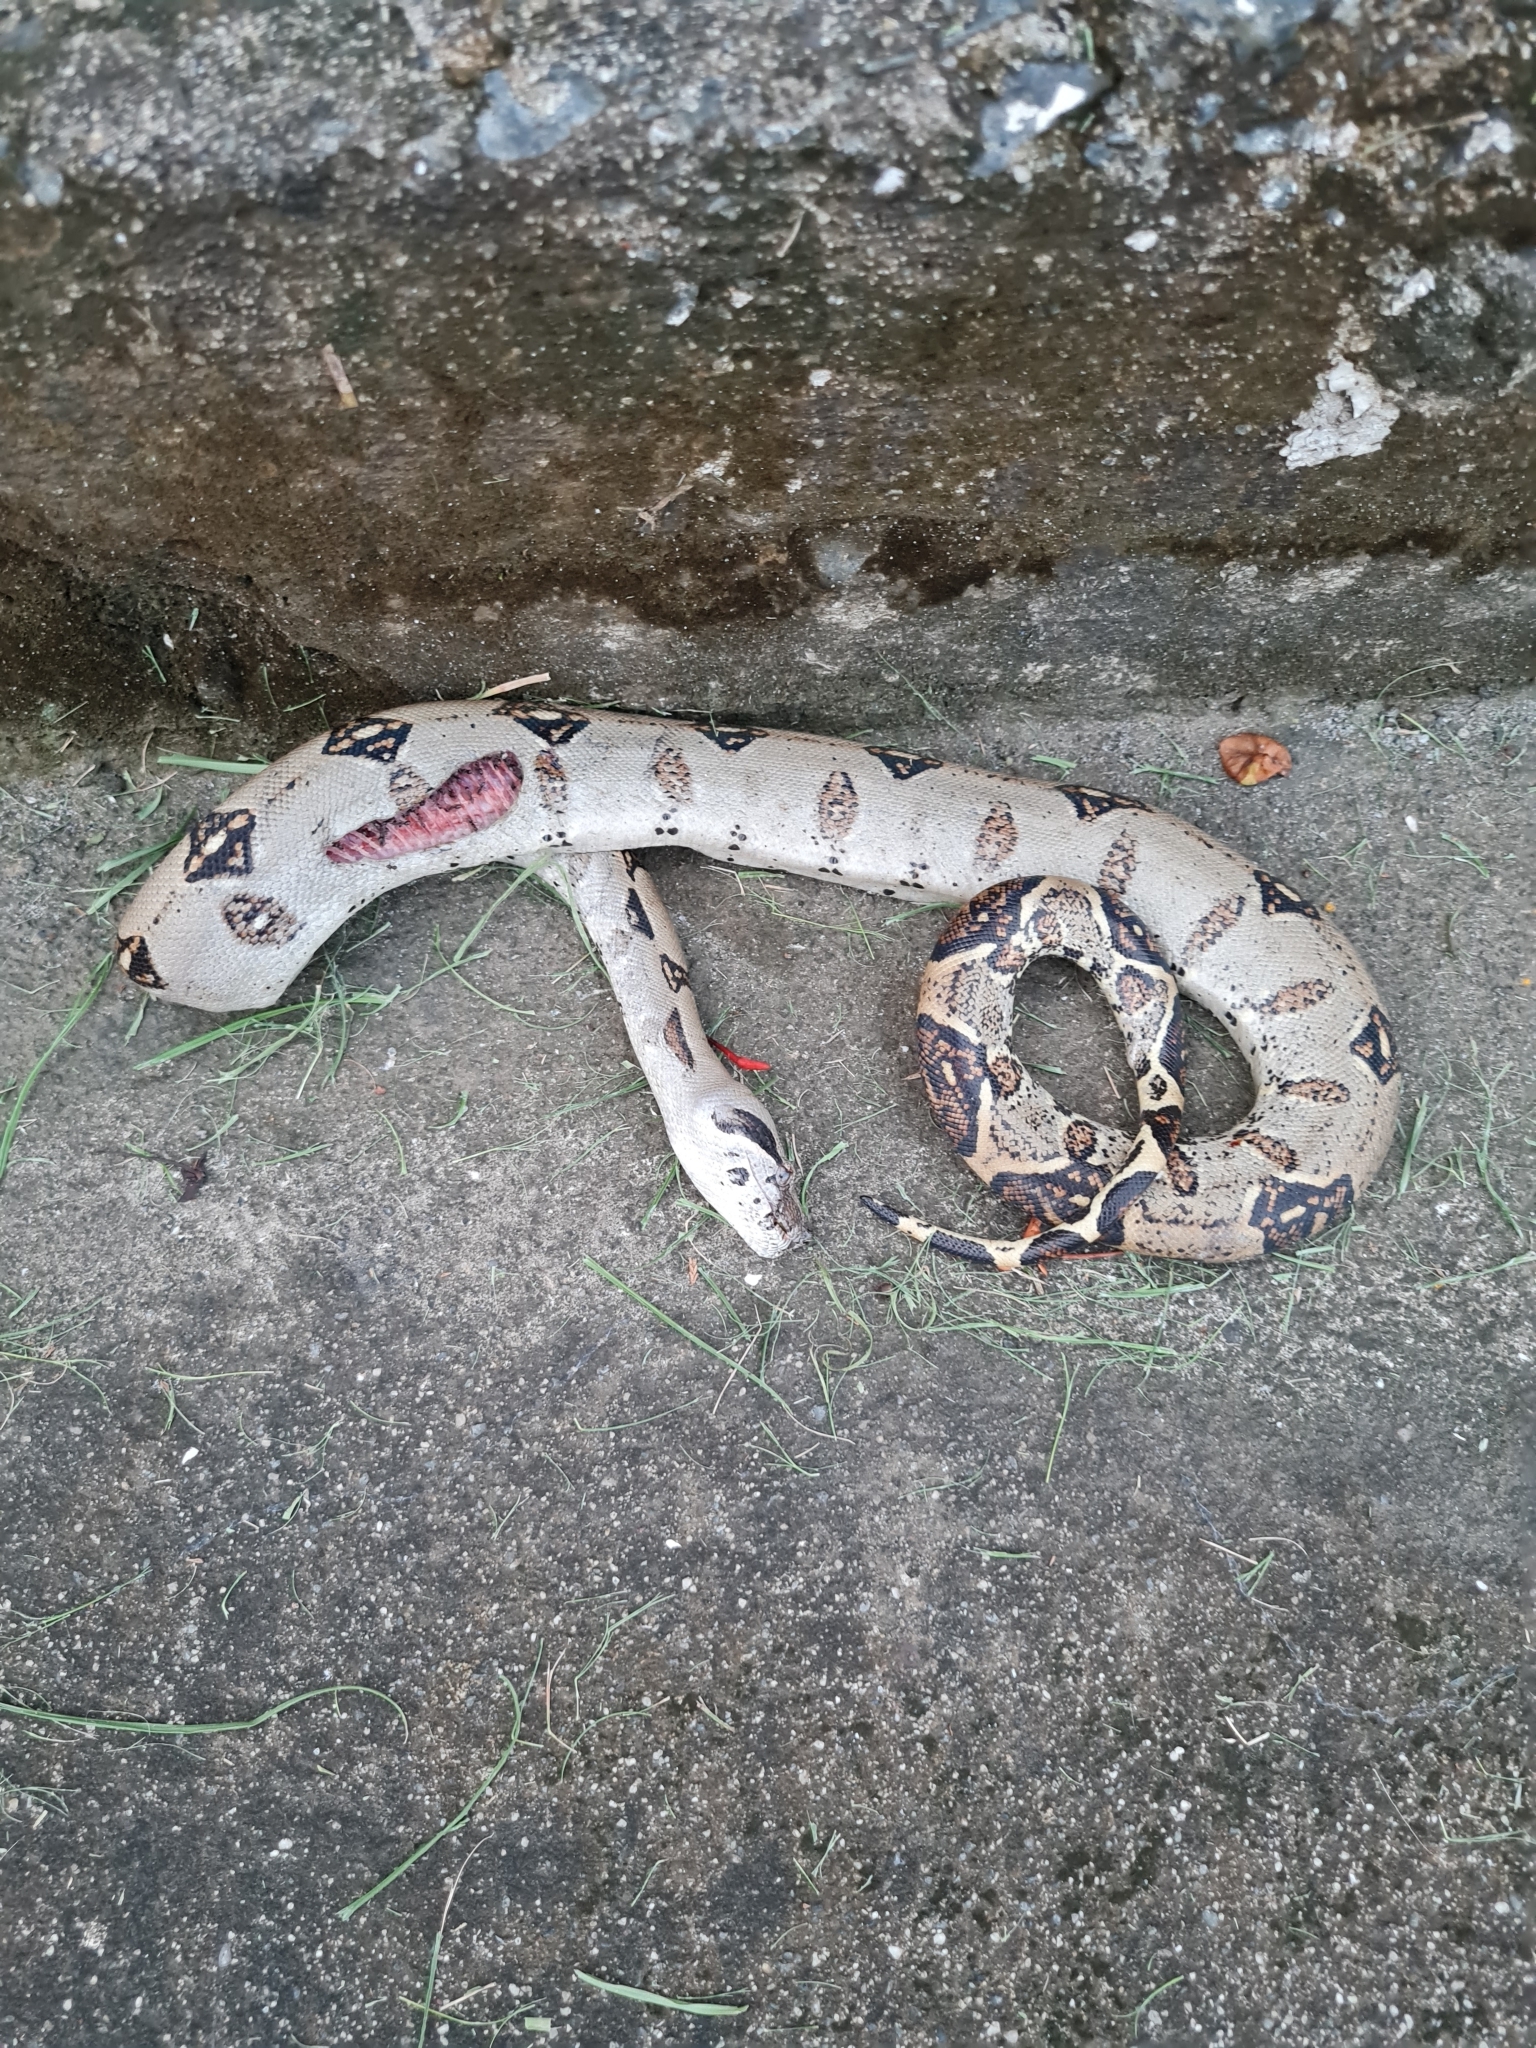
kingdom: Animalia
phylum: Chordata
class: Squamata
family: Boidae
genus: Boa
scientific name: Boa imperator
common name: Central american boa
